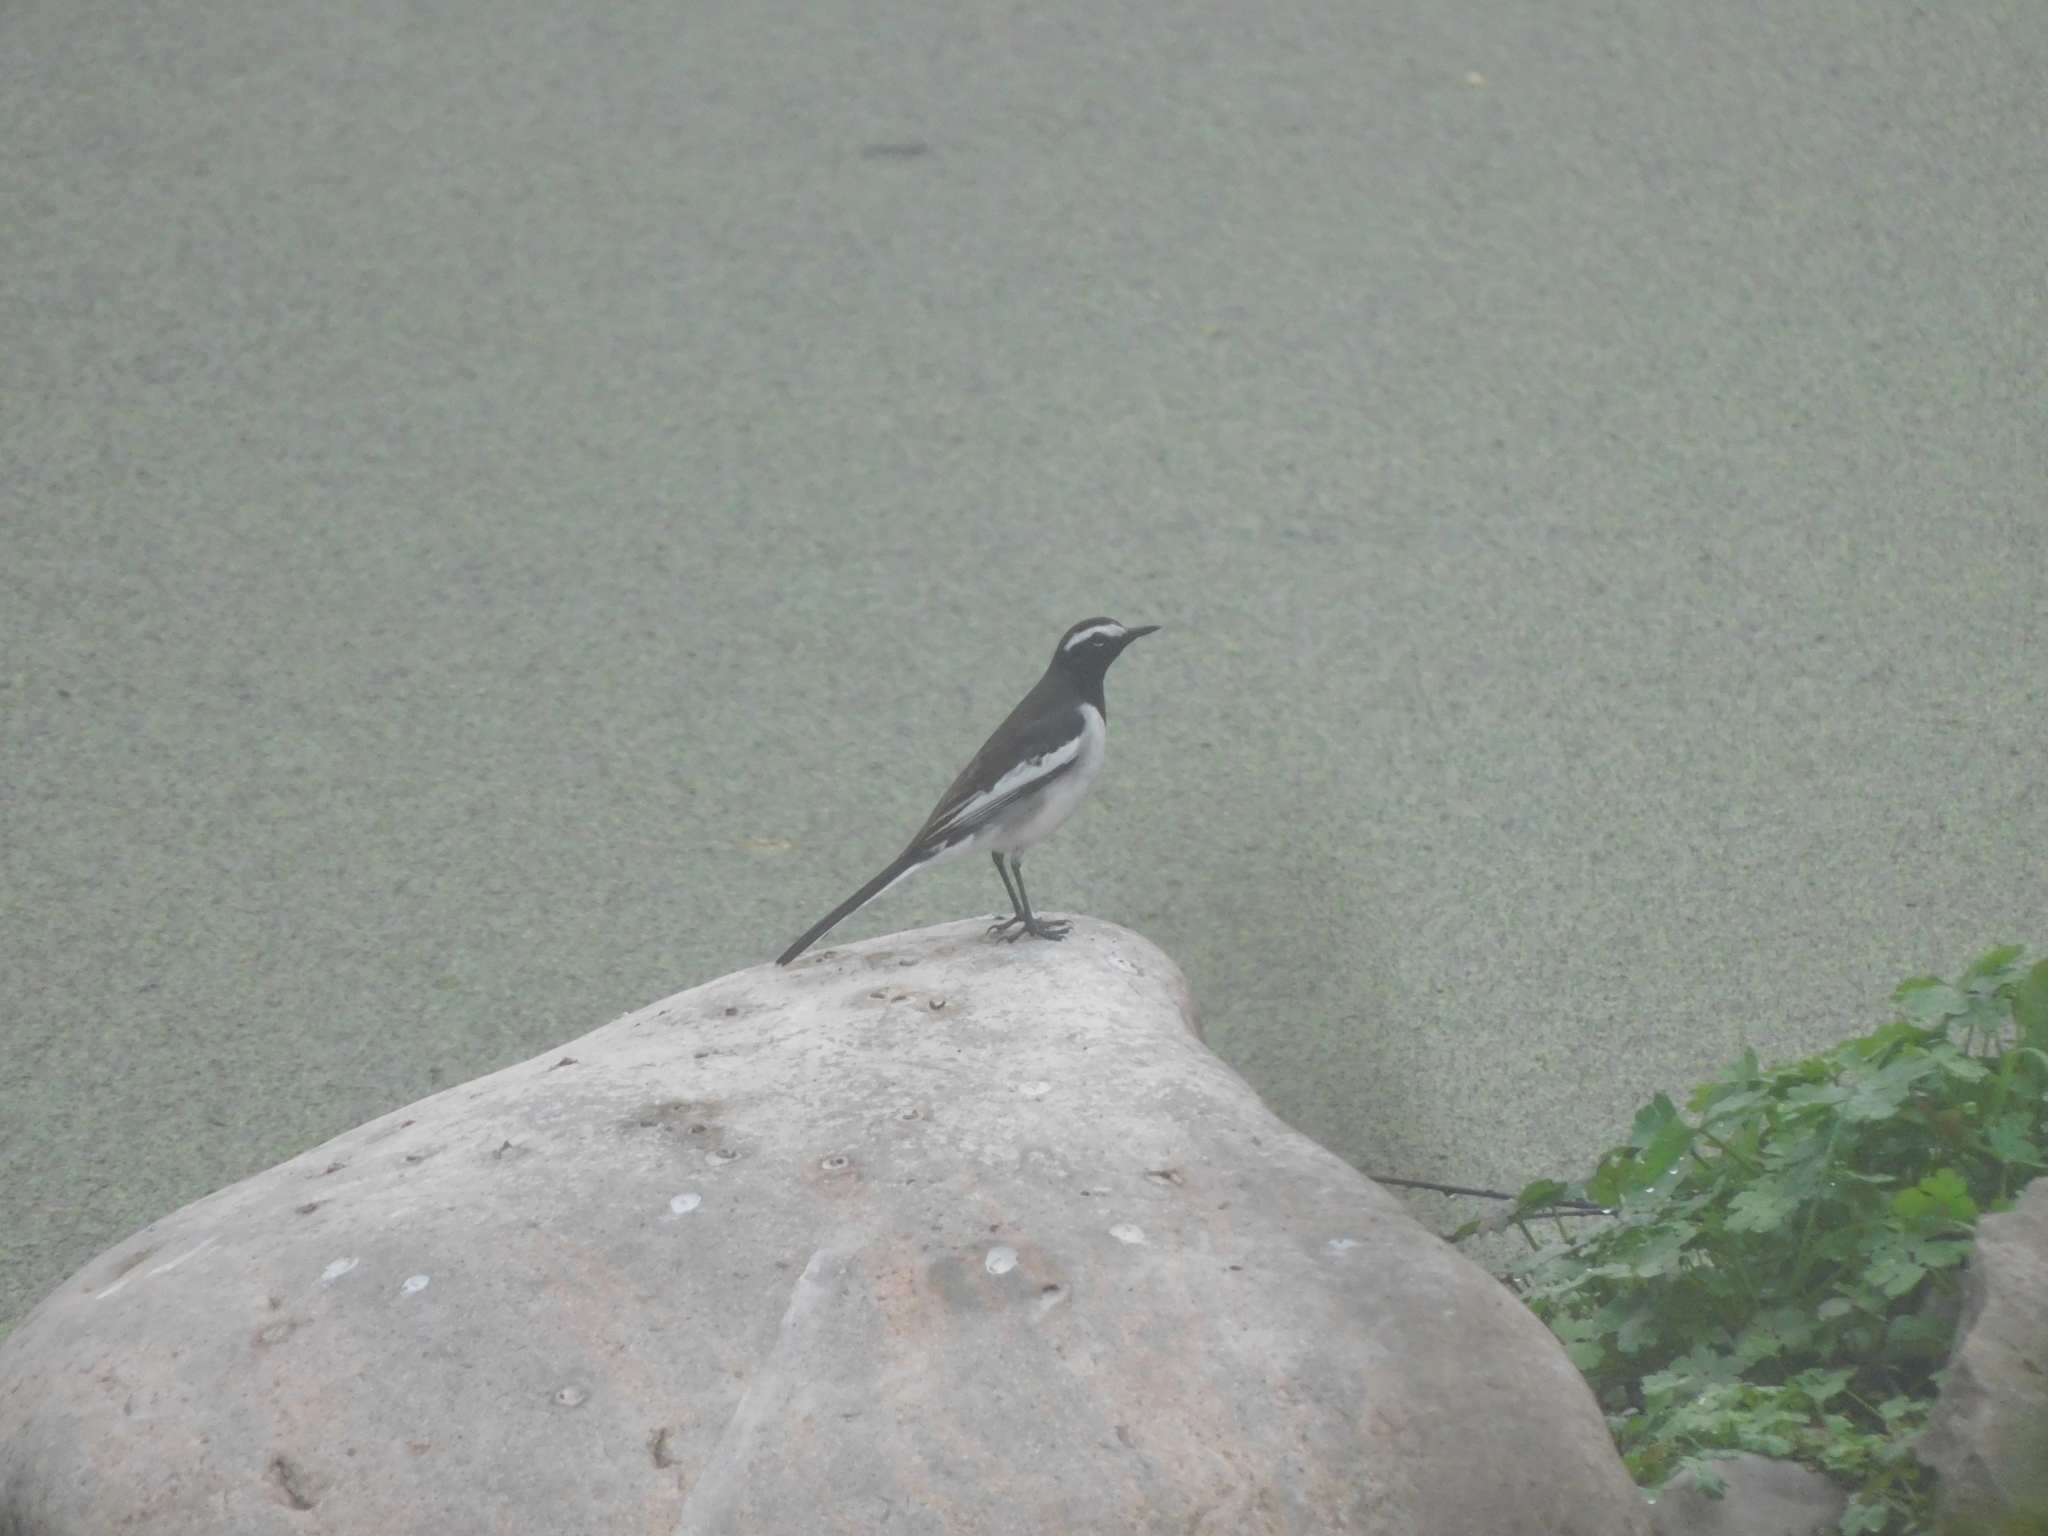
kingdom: Animalia
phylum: Chordata
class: Aves
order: Passeriformes
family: Motacillidae
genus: Motacilla
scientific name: Motacilla maderaspatensis
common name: White-browed wagtail
